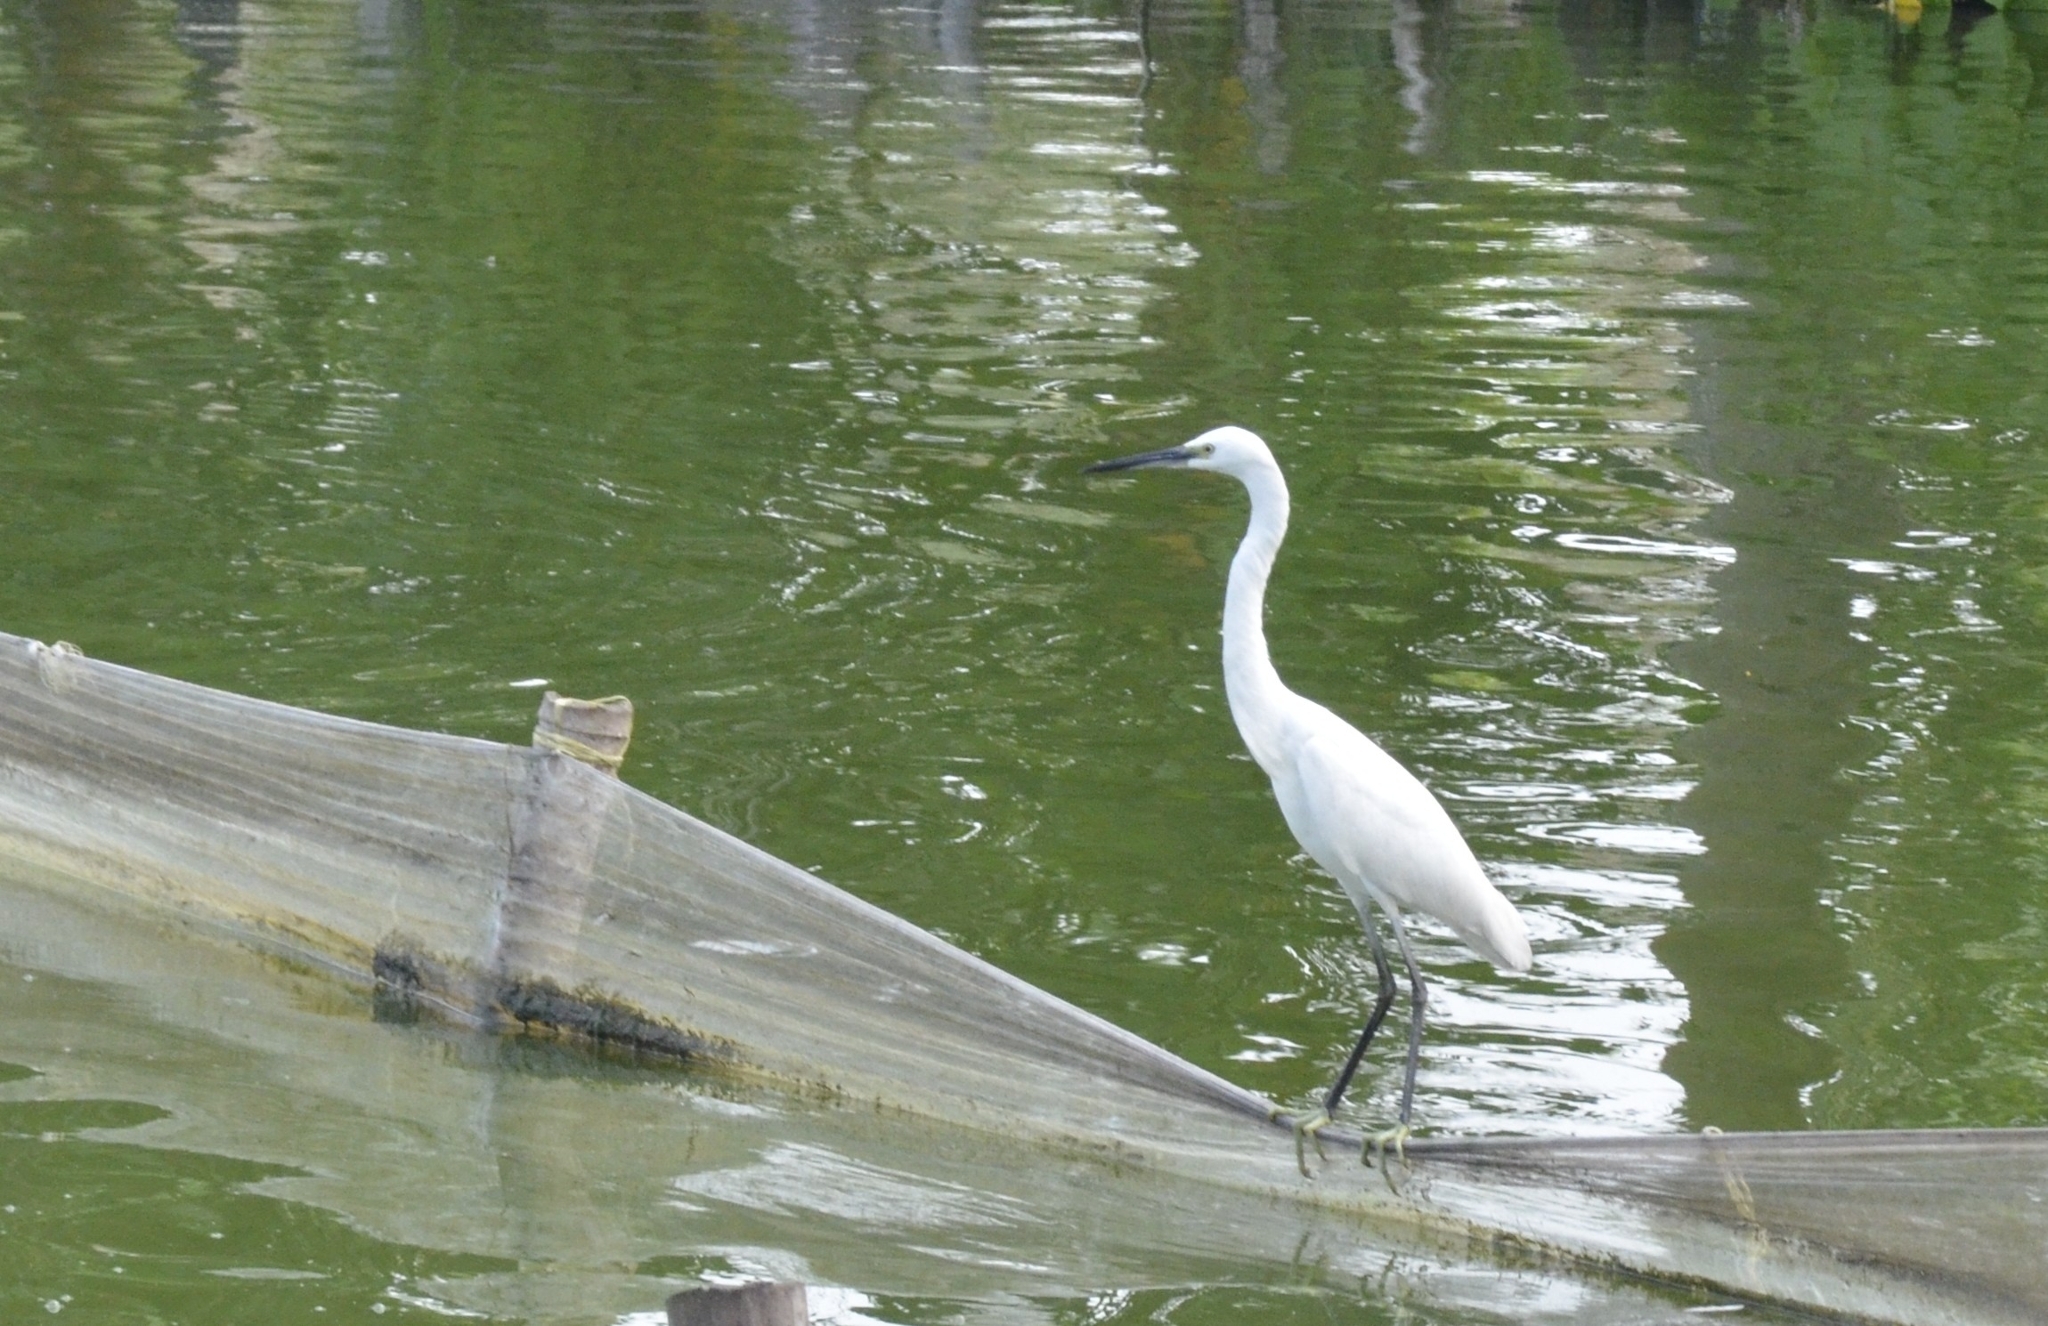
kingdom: Animalia
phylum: Chordata
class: Aves
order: Pelecaniformes
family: Ardeidae
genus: Egretta
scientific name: Egretta garzetta
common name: Little egret
